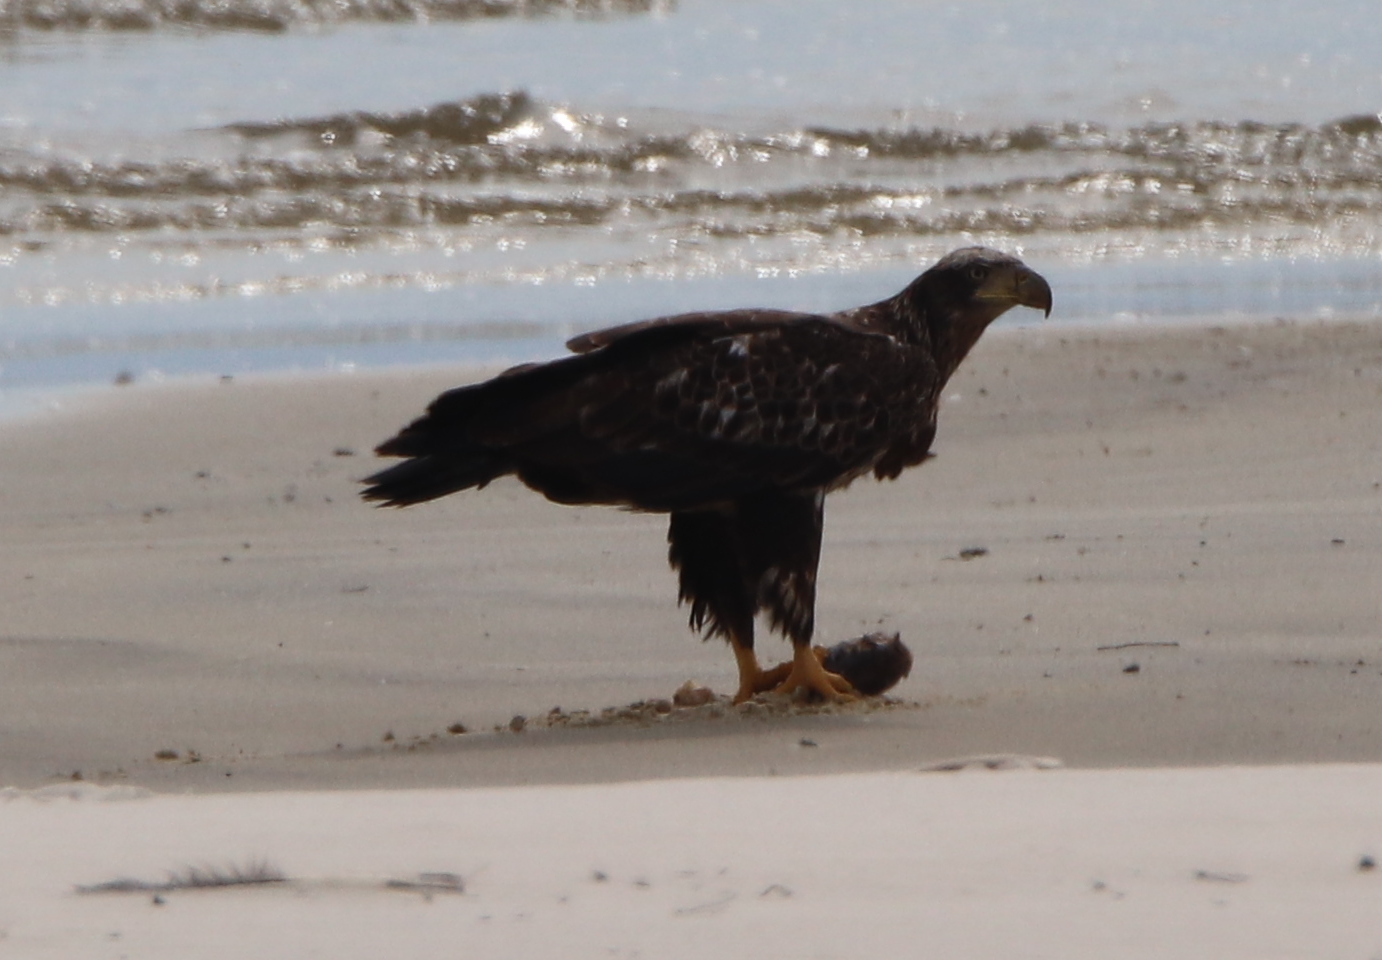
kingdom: Animalia
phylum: Chordata
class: Aves
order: Accipitriformes
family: Accipitridae
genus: Haliaeetus
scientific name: Haliaeetus leucocephalus
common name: Bald eagle
